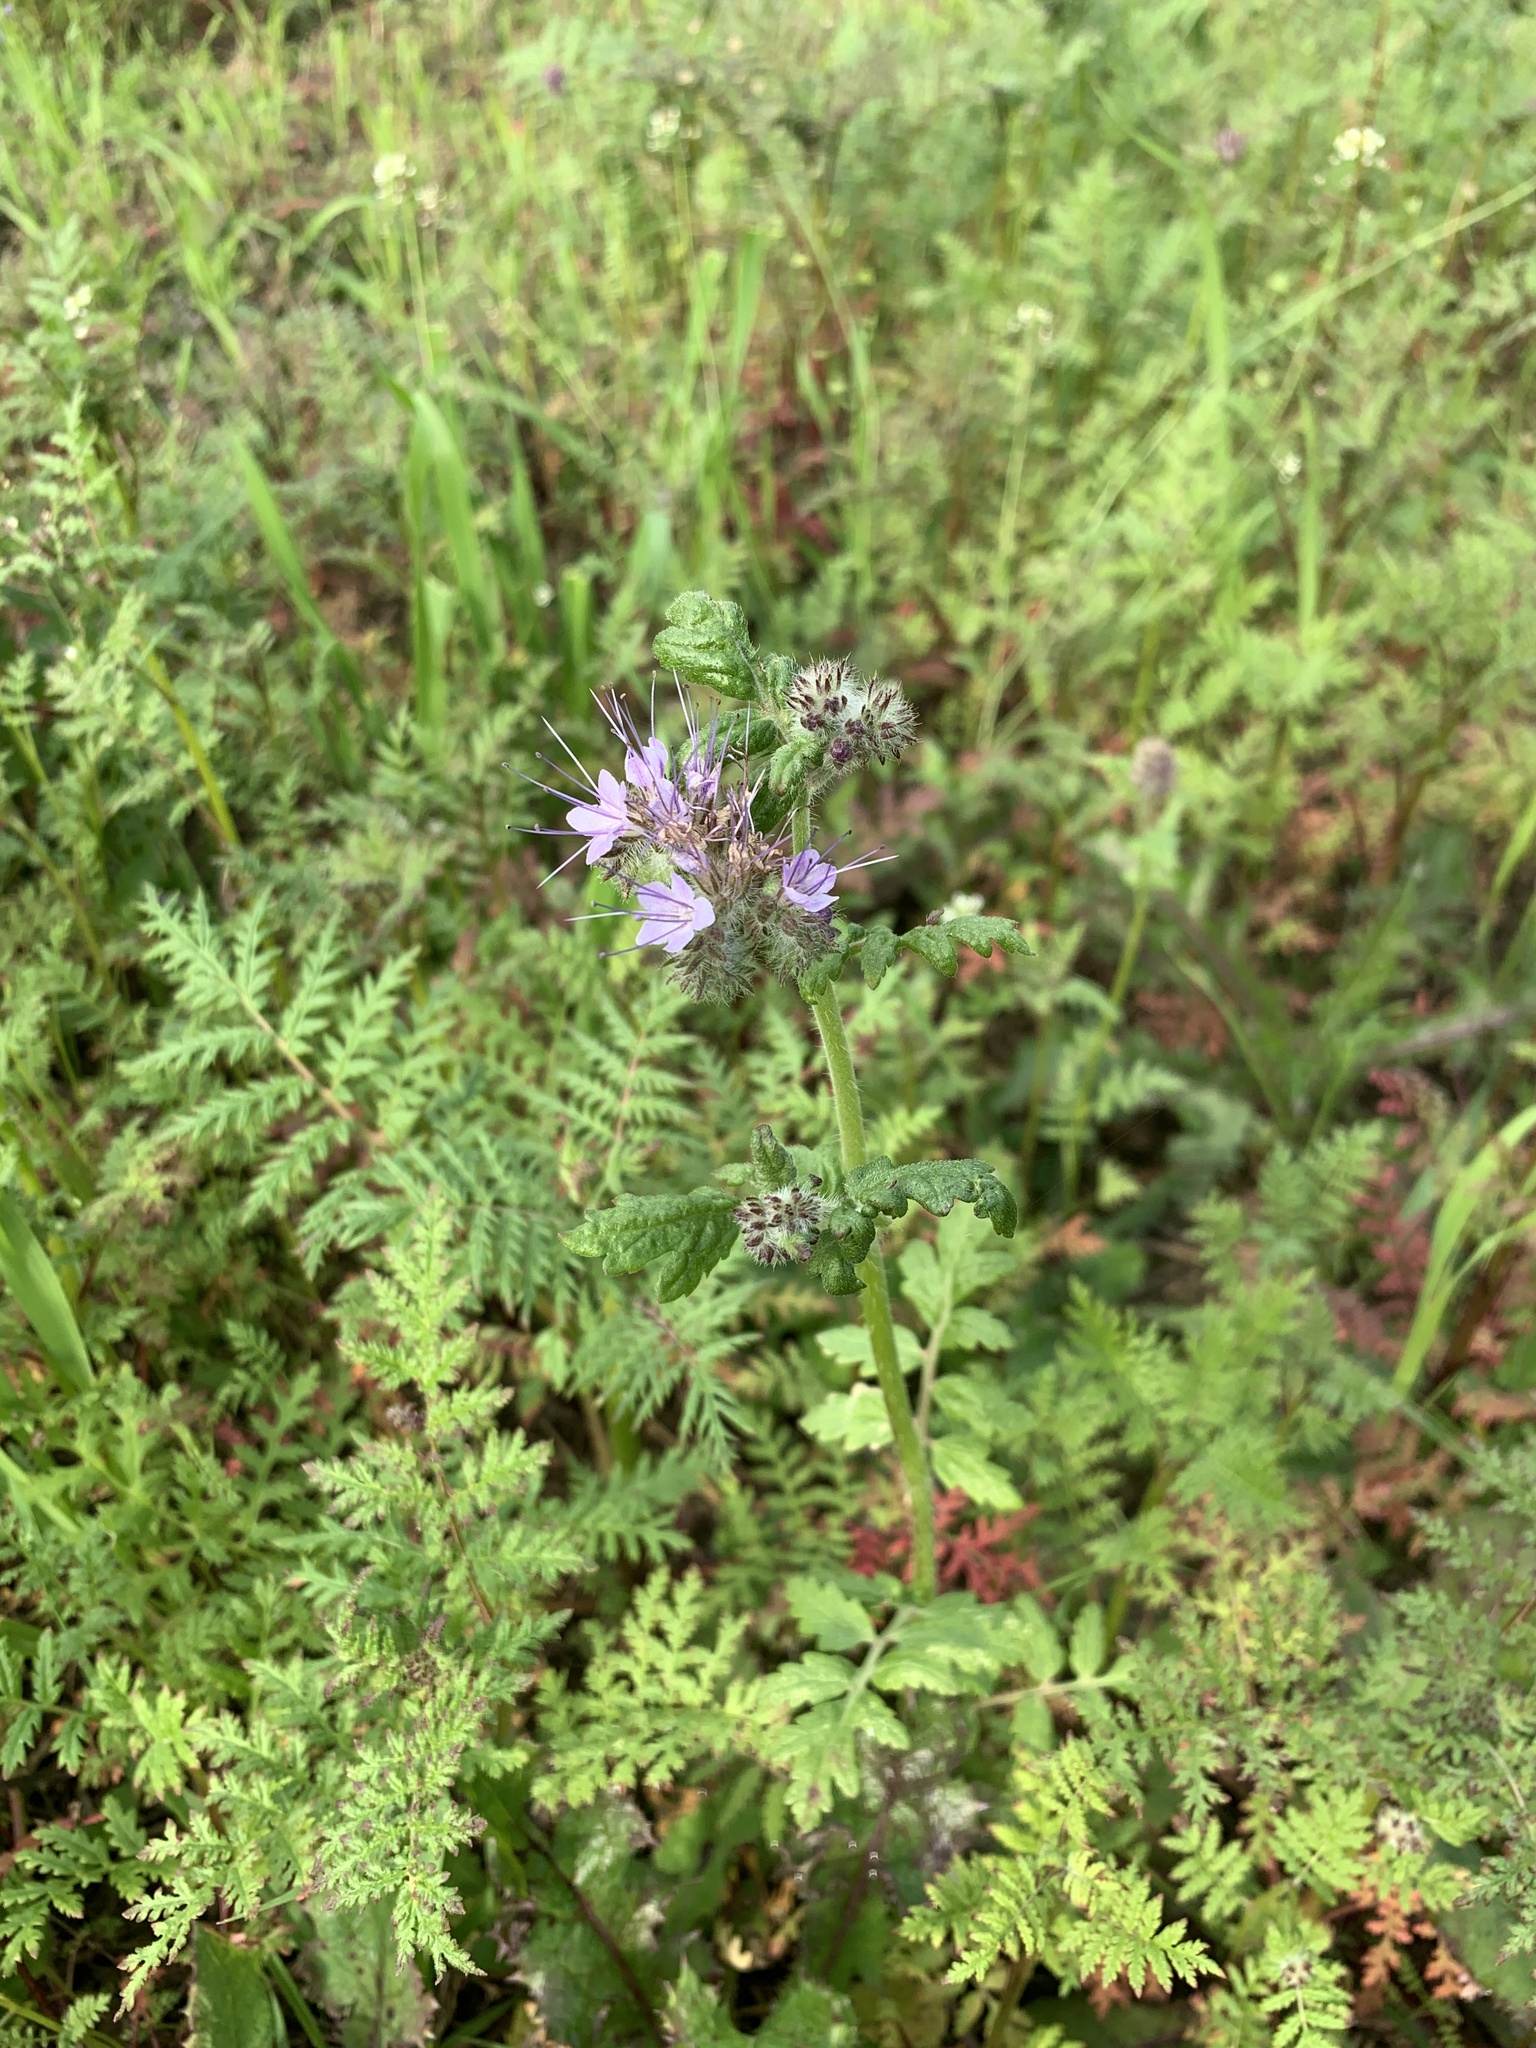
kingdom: Plantae
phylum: Tracheophyta
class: Magnoliopsida
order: Boraginales
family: Hydrophyllaceae
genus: Phacelia
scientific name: Phacelia tanacetifolia
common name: Phacelia
